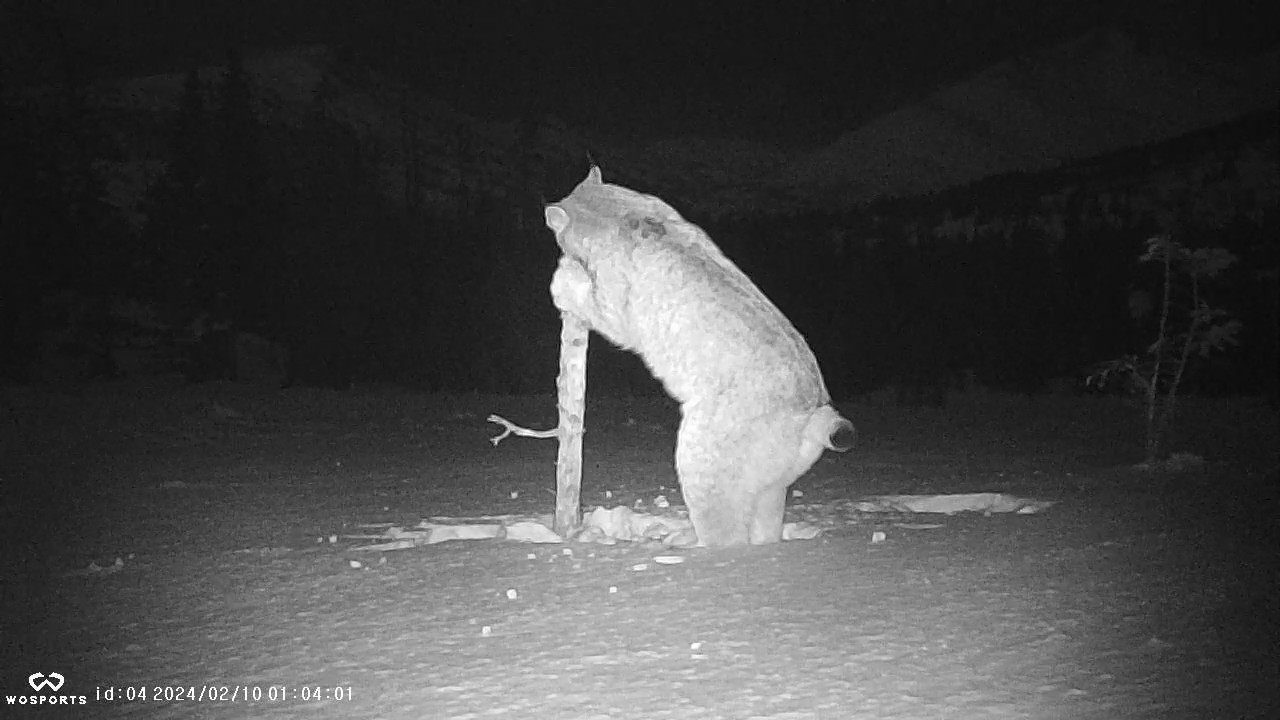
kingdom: Animalia
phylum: Chordata
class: Mammalia
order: Carnivora
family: Felidae
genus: Lynx
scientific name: Lynx canadensis
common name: Canadian lynx
